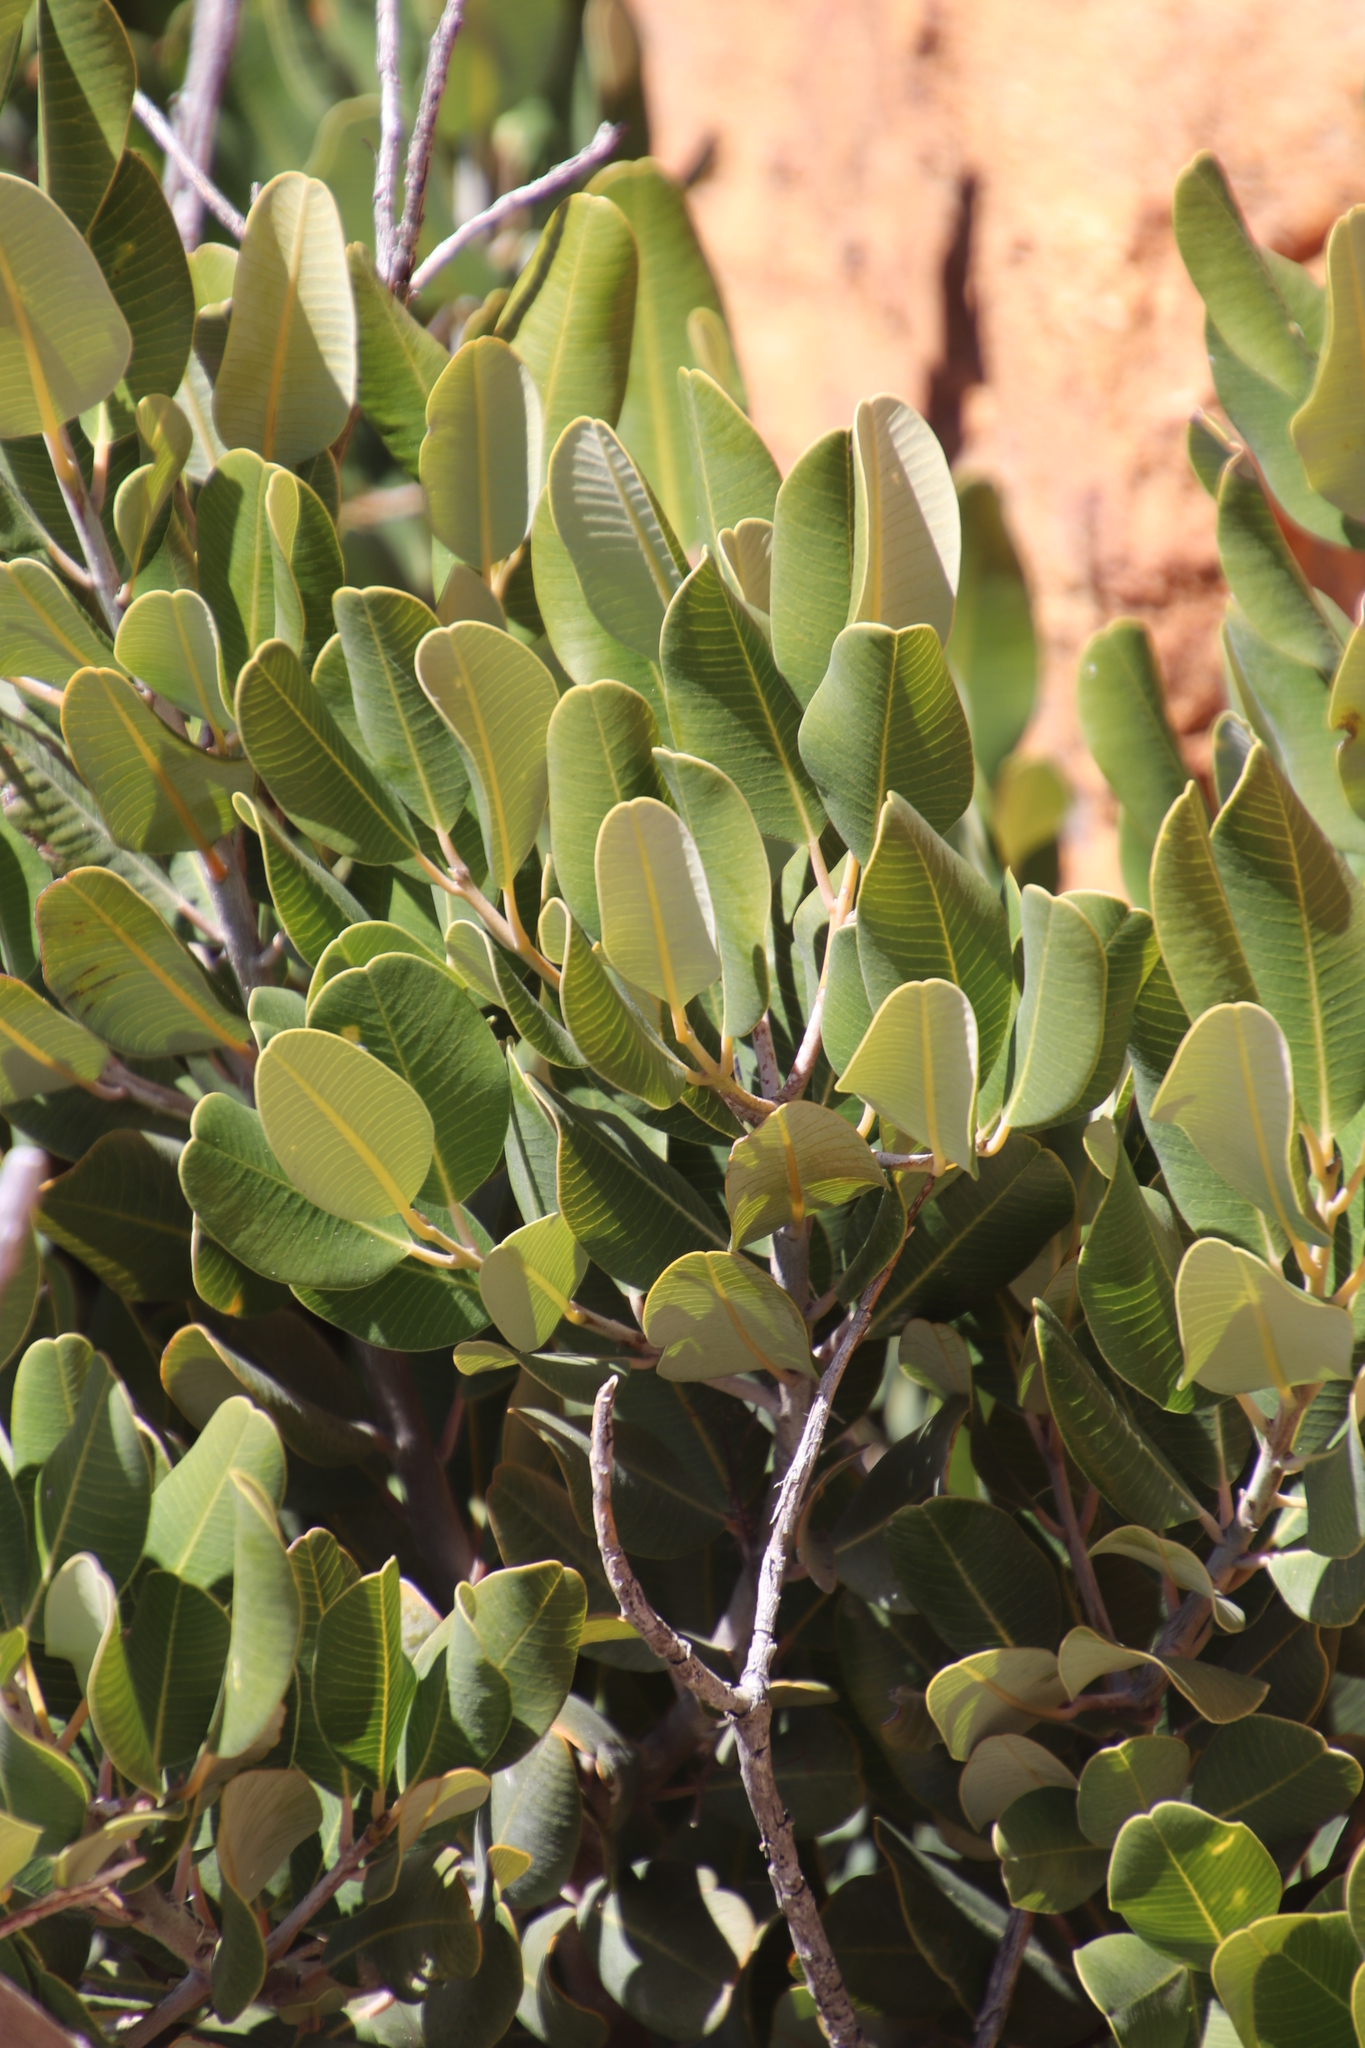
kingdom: Plantae
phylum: Tracheophyta
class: Magnoliopsida
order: Sapindales
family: Anacardiaceae
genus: Heeria
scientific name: Heeria argentea
